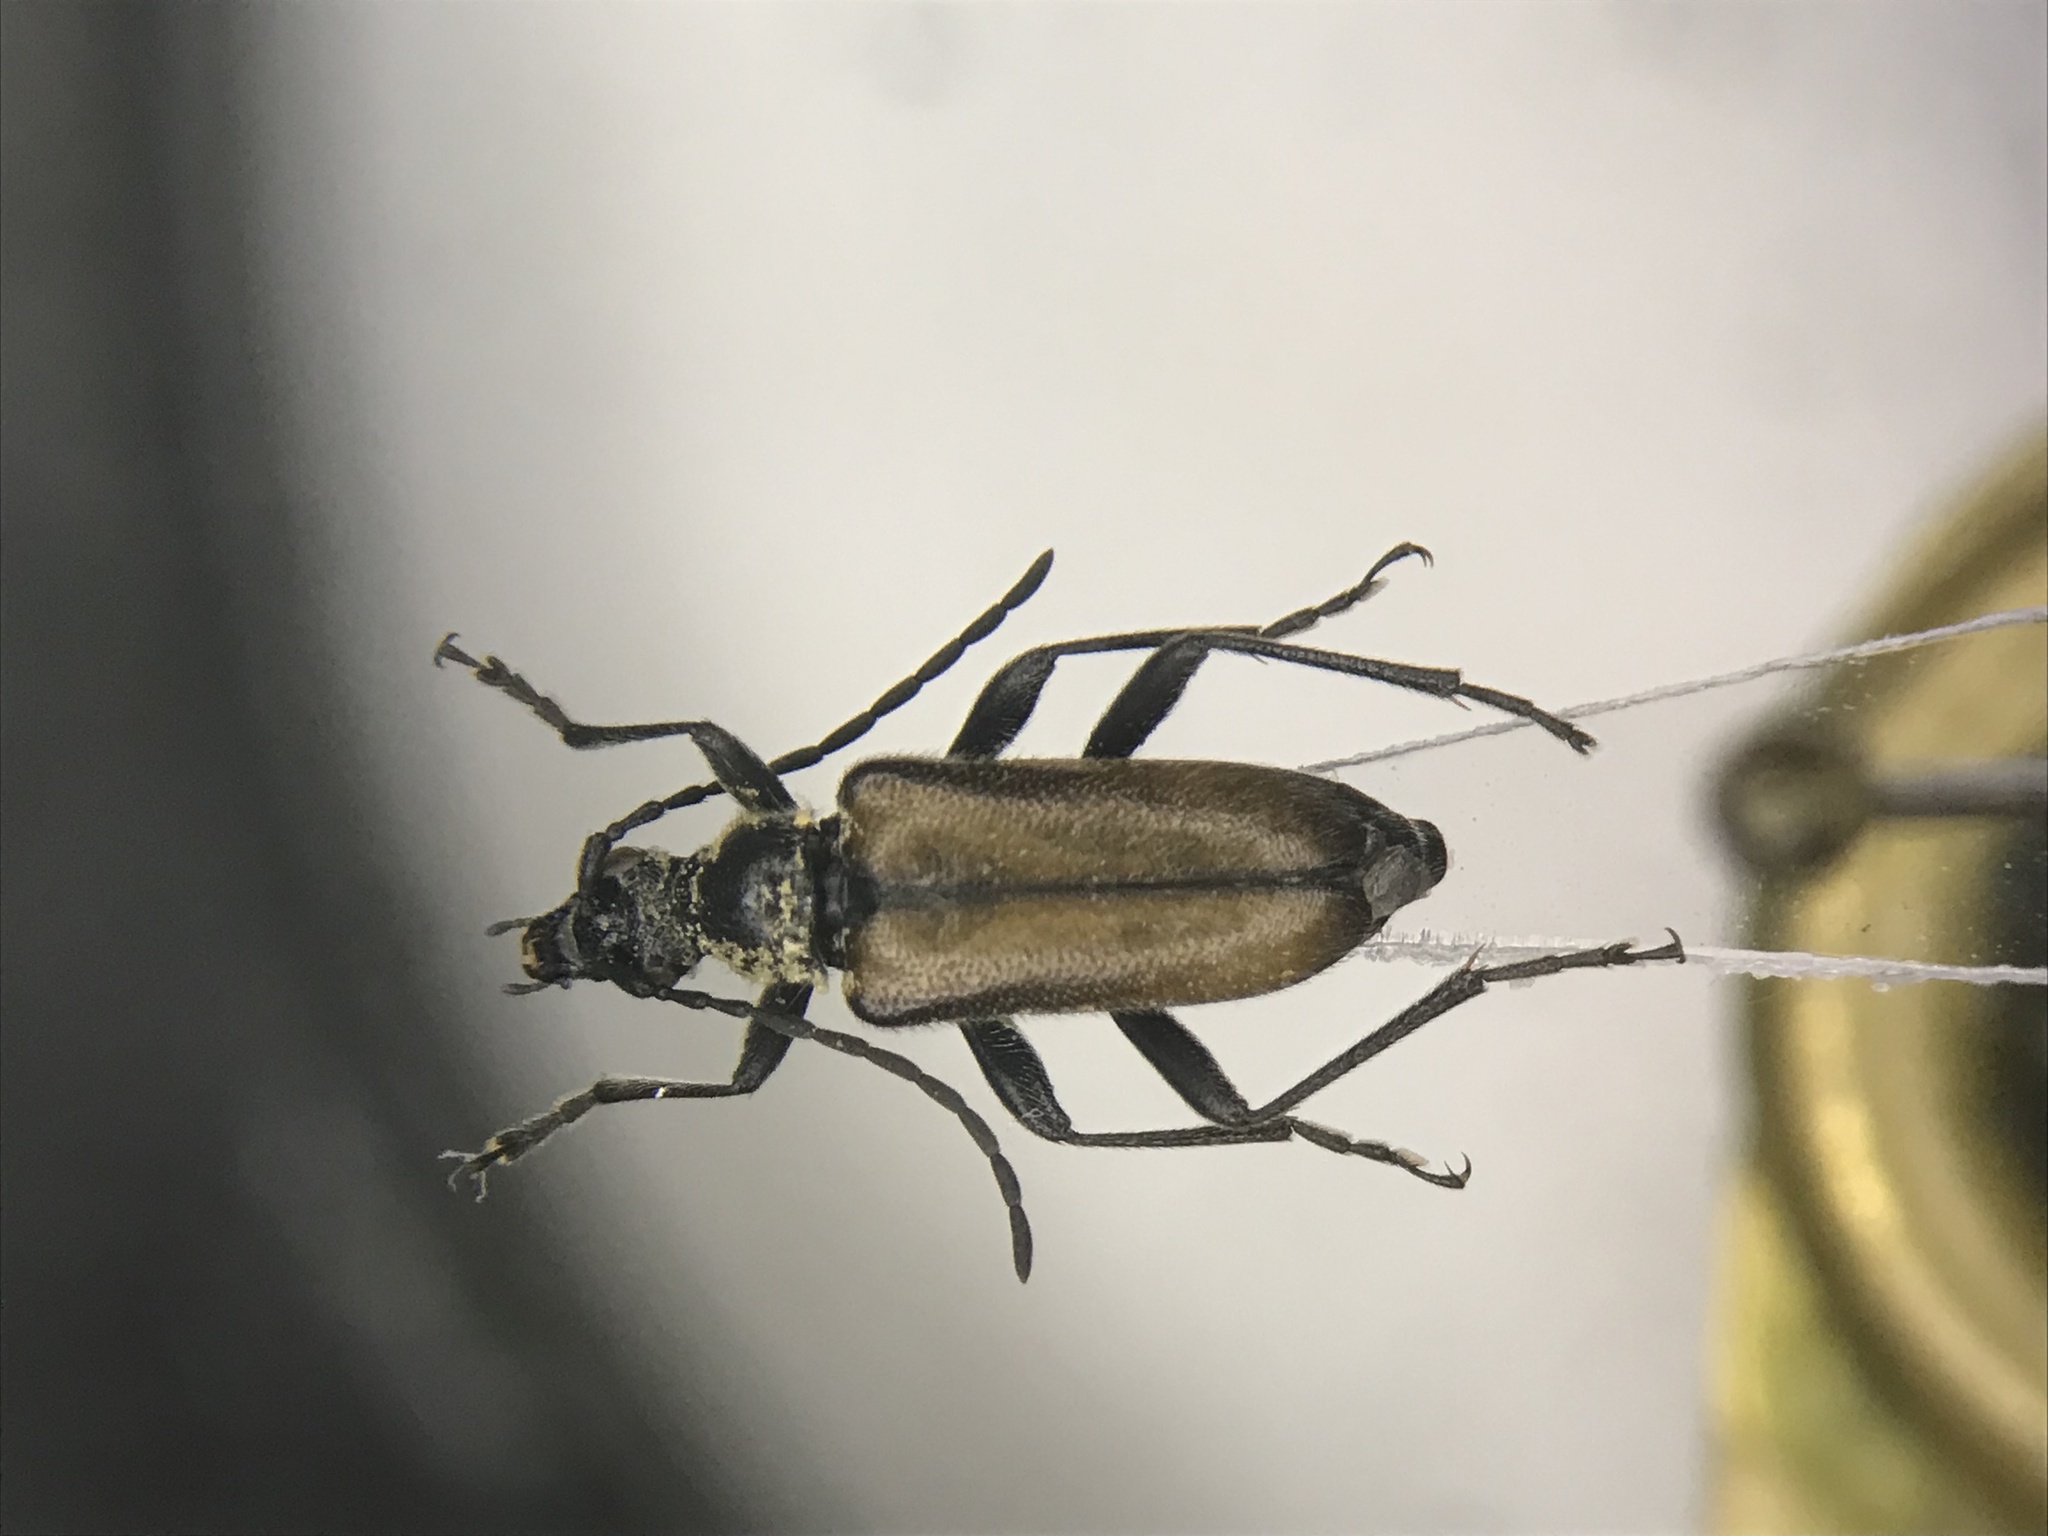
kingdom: Animalia
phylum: Arthropoda
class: Insecta
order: Coleoptera
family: Cerambycidae
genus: Gnathacmaeops
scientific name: Gnathacmaeops pratensis
